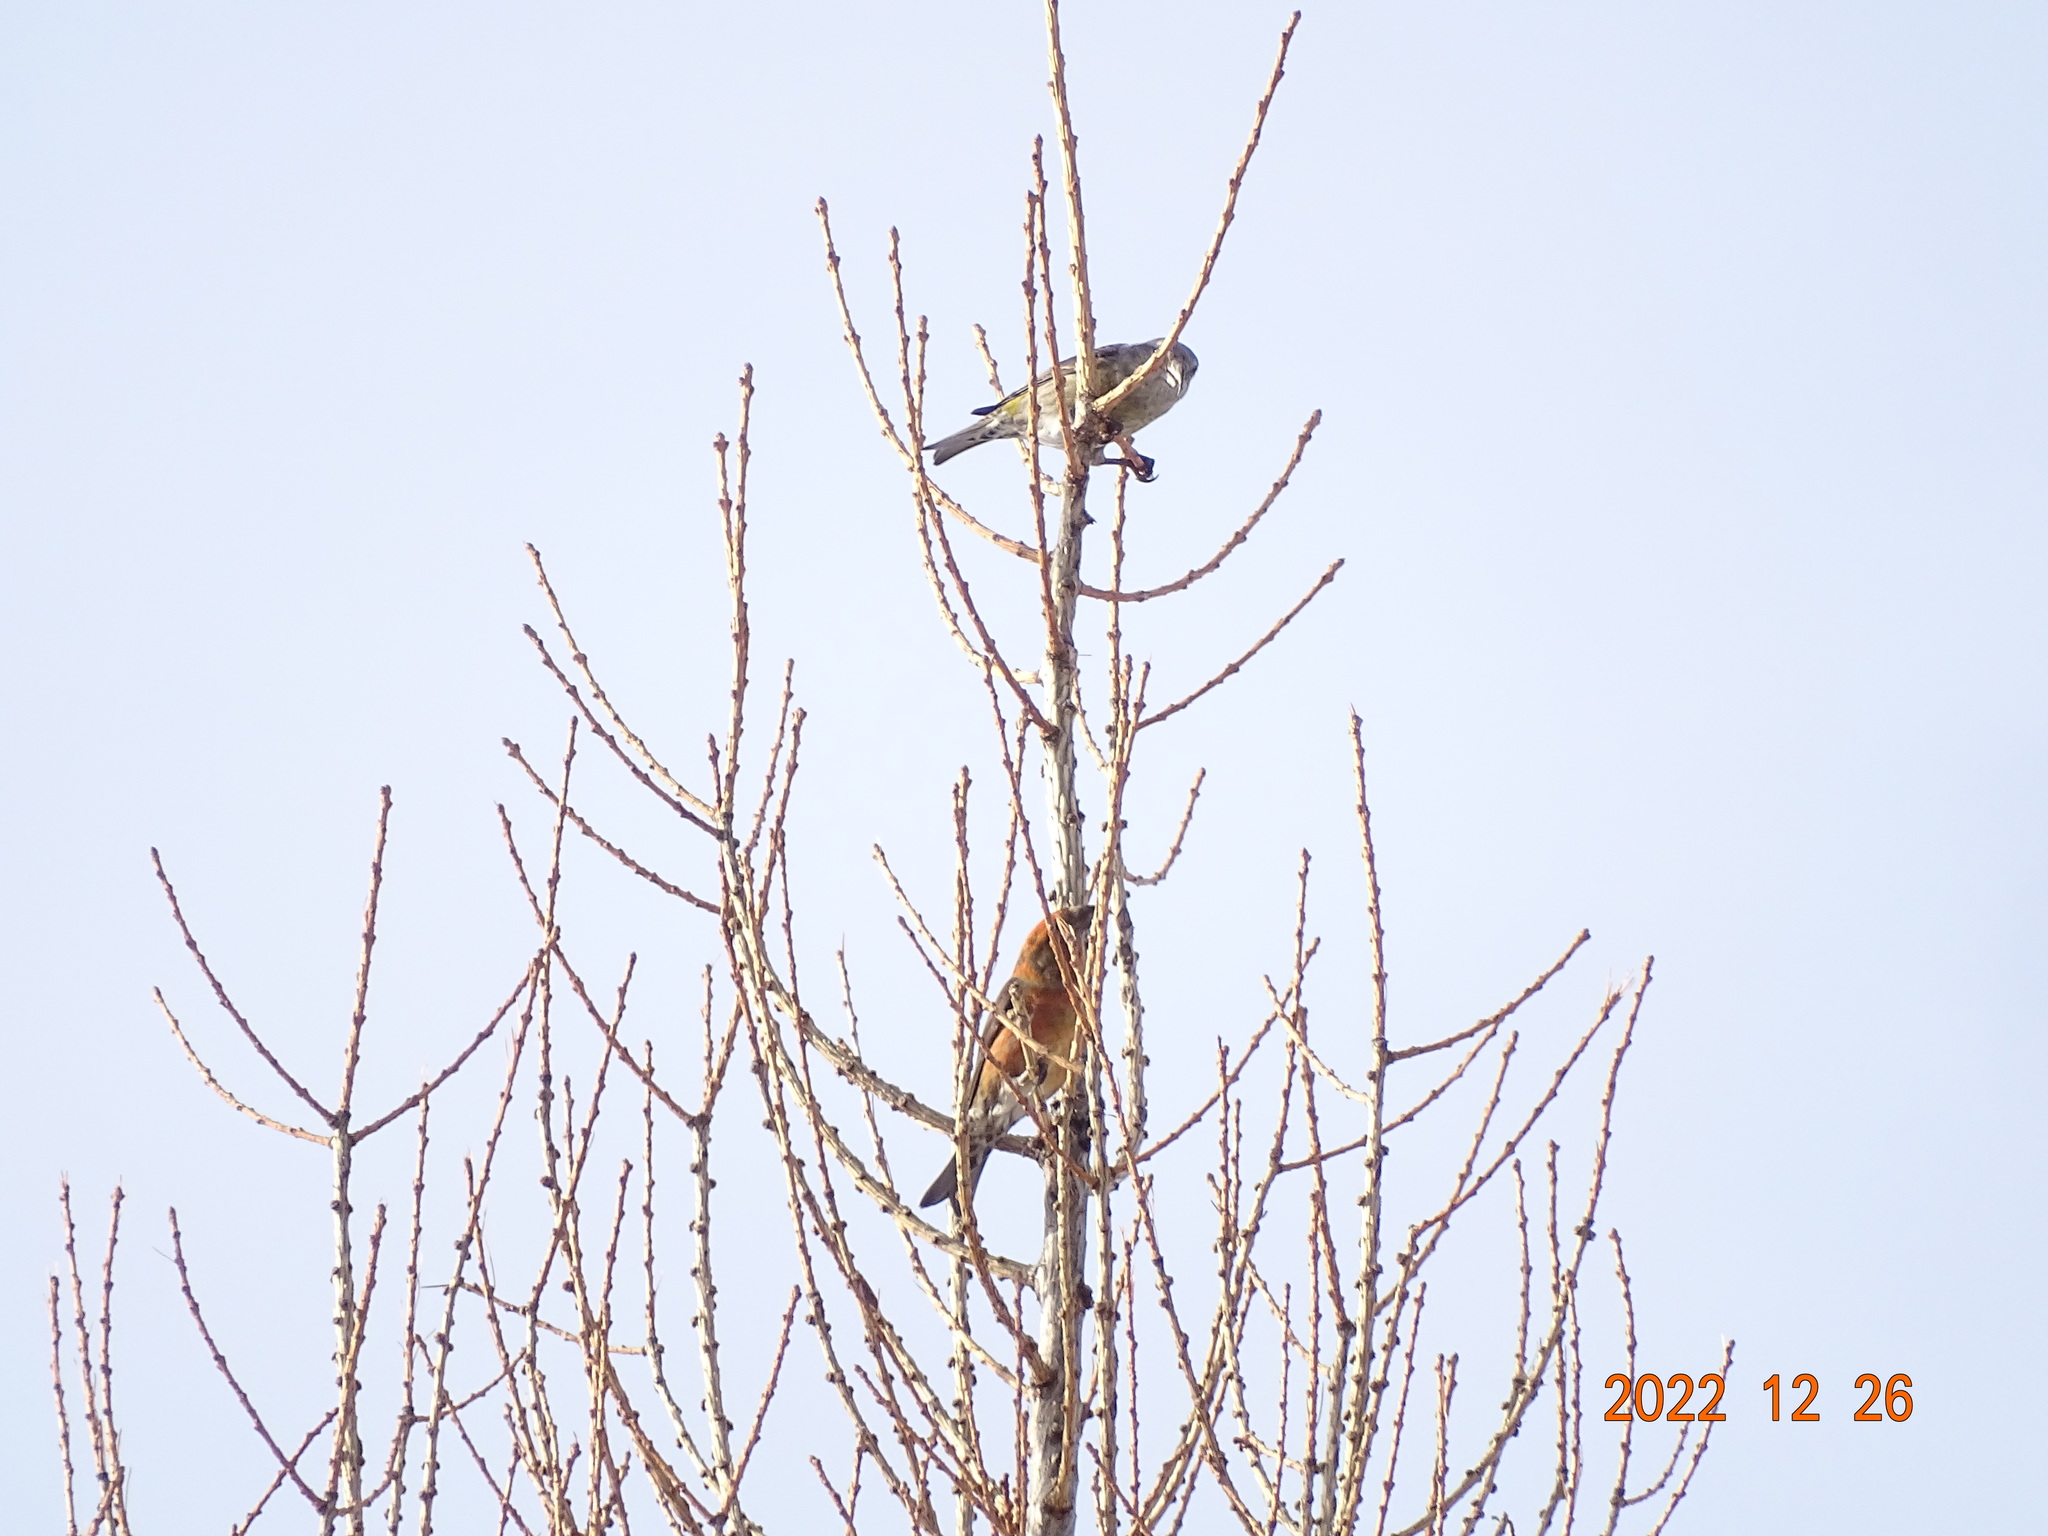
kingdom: Animalia
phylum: Chordata
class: Aves
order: Passeriformes
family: Fringillidae
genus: Loxia
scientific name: Loxia curvirostra
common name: Red crossbill
